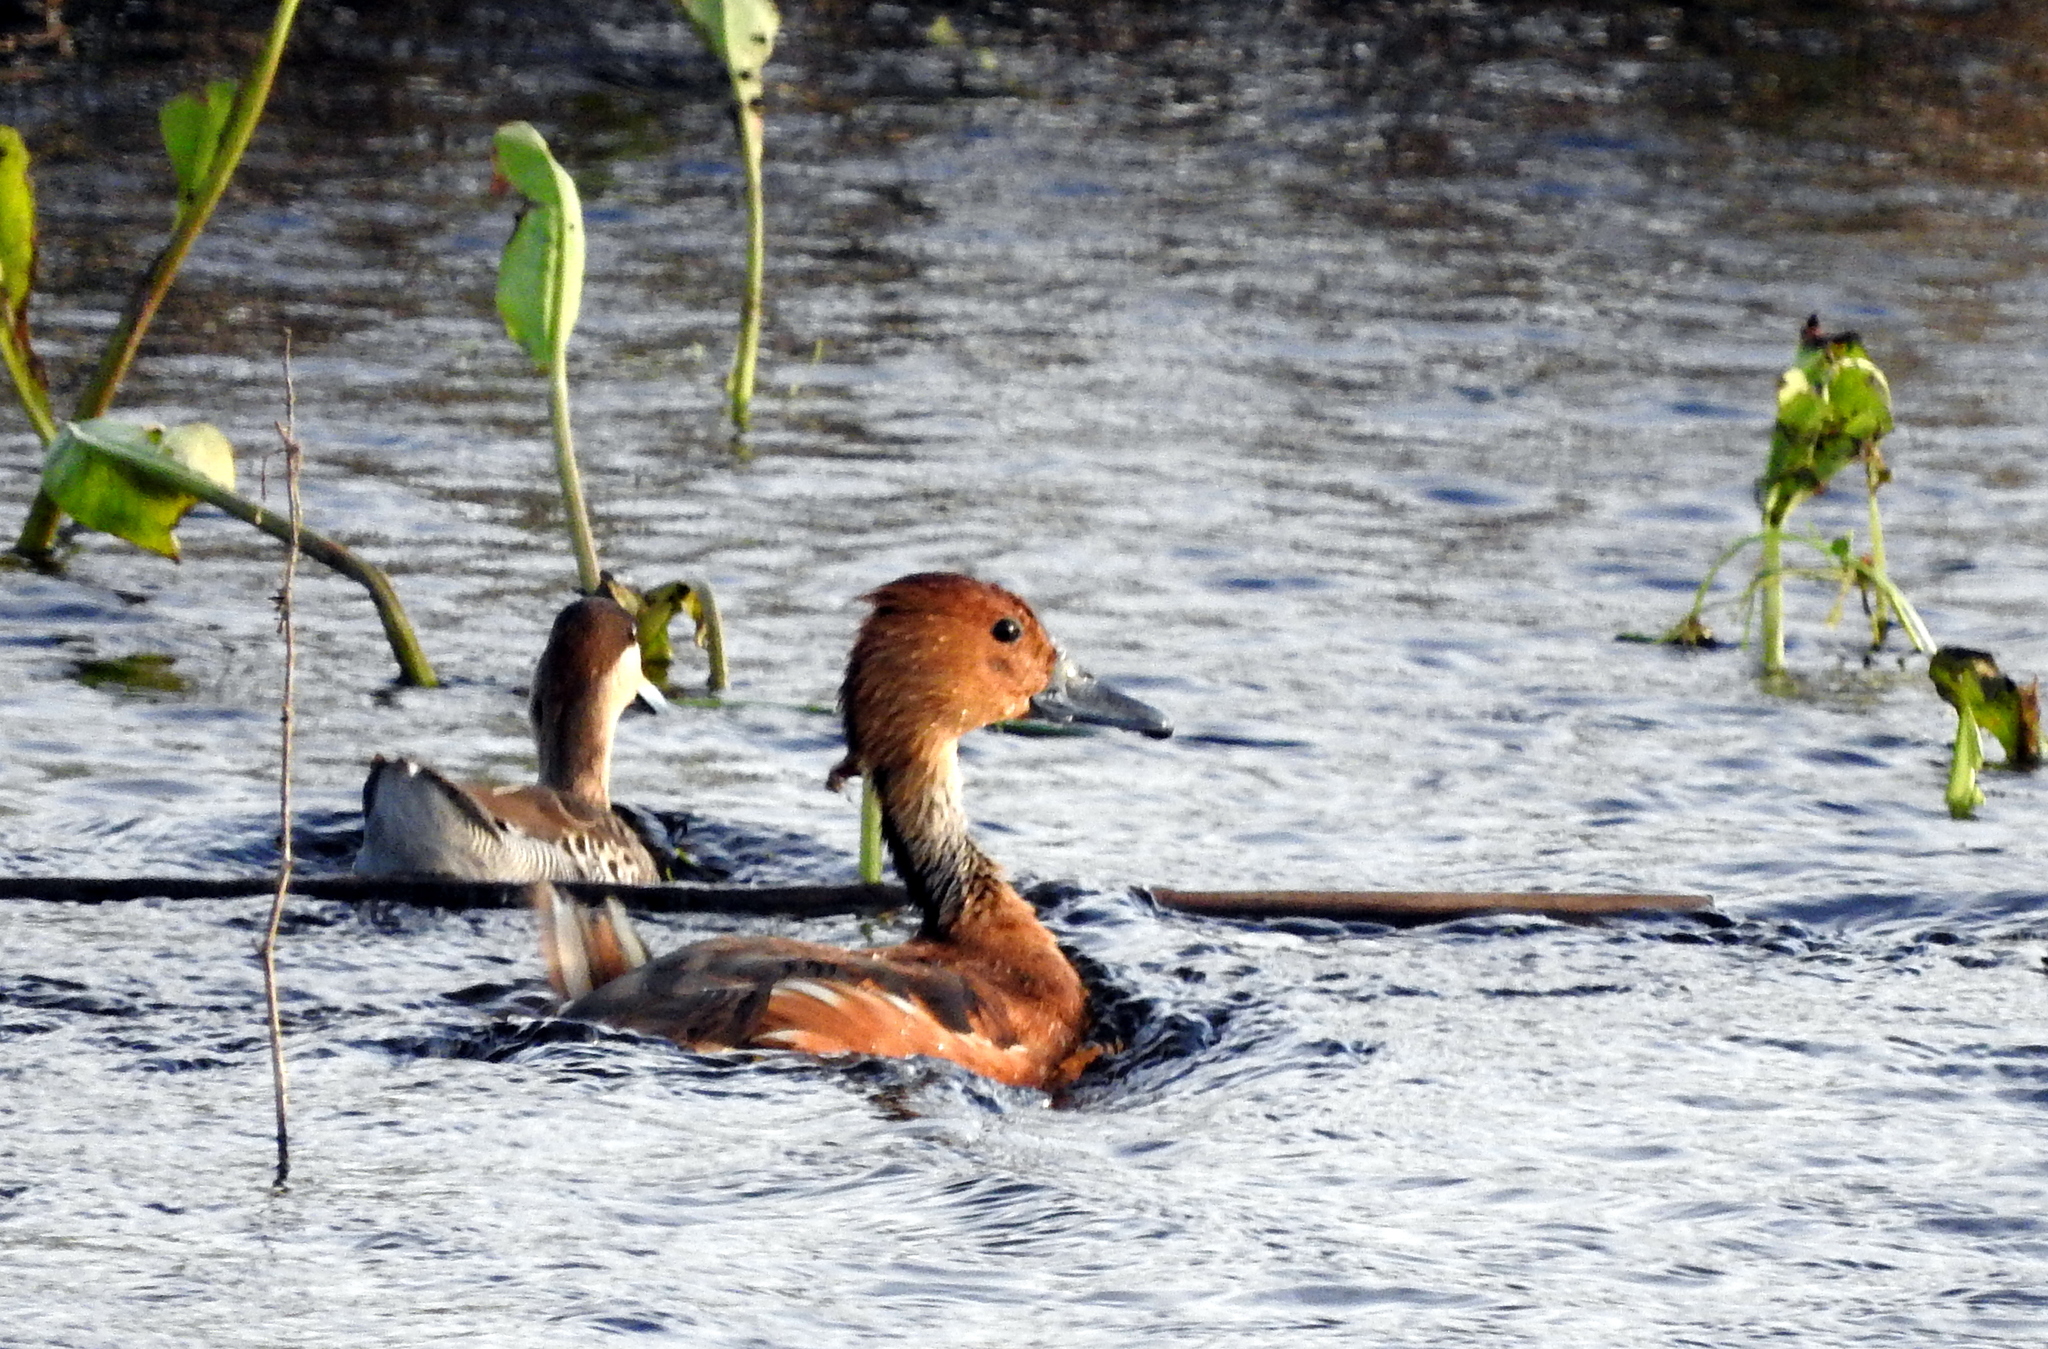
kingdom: Animalia
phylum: Chordata
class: Aves
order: Anseriformes
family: Anatidae
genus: Dendrocygna
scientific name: Dendrocygna bicolor
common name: Fulvous whistling duck
